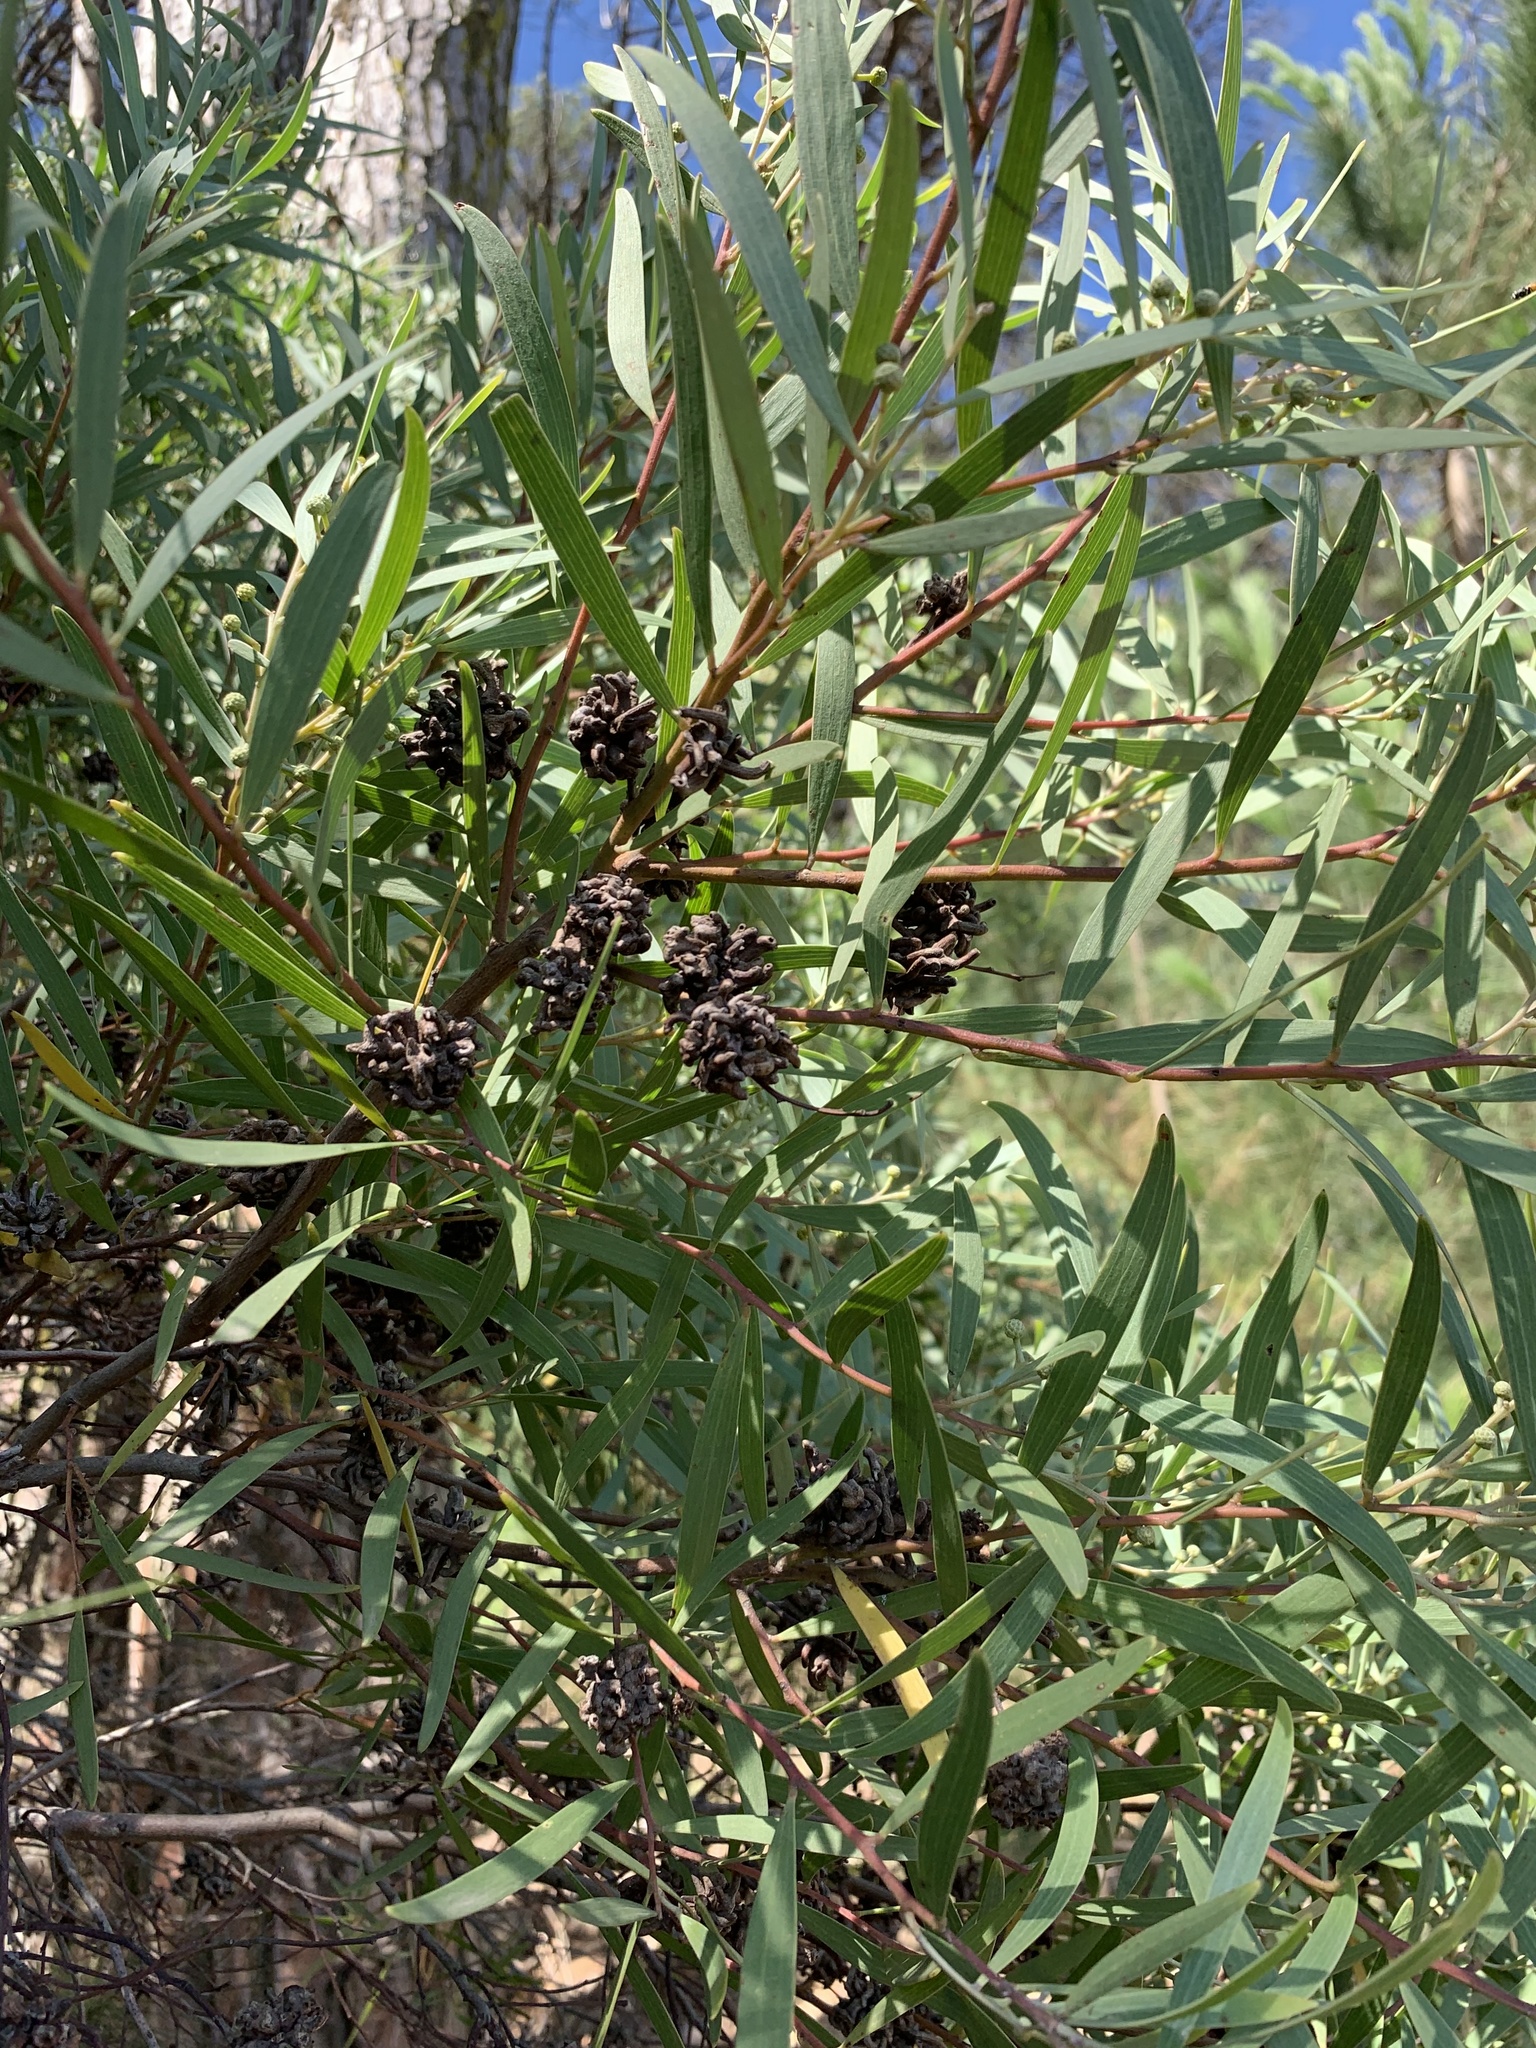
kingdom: Plantae
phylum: Tracheophyta
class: Magnoliopsida
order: Fabales
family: Fabaceae
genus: Acacia
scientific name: Acacia cyclops
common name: Coastal wattle
